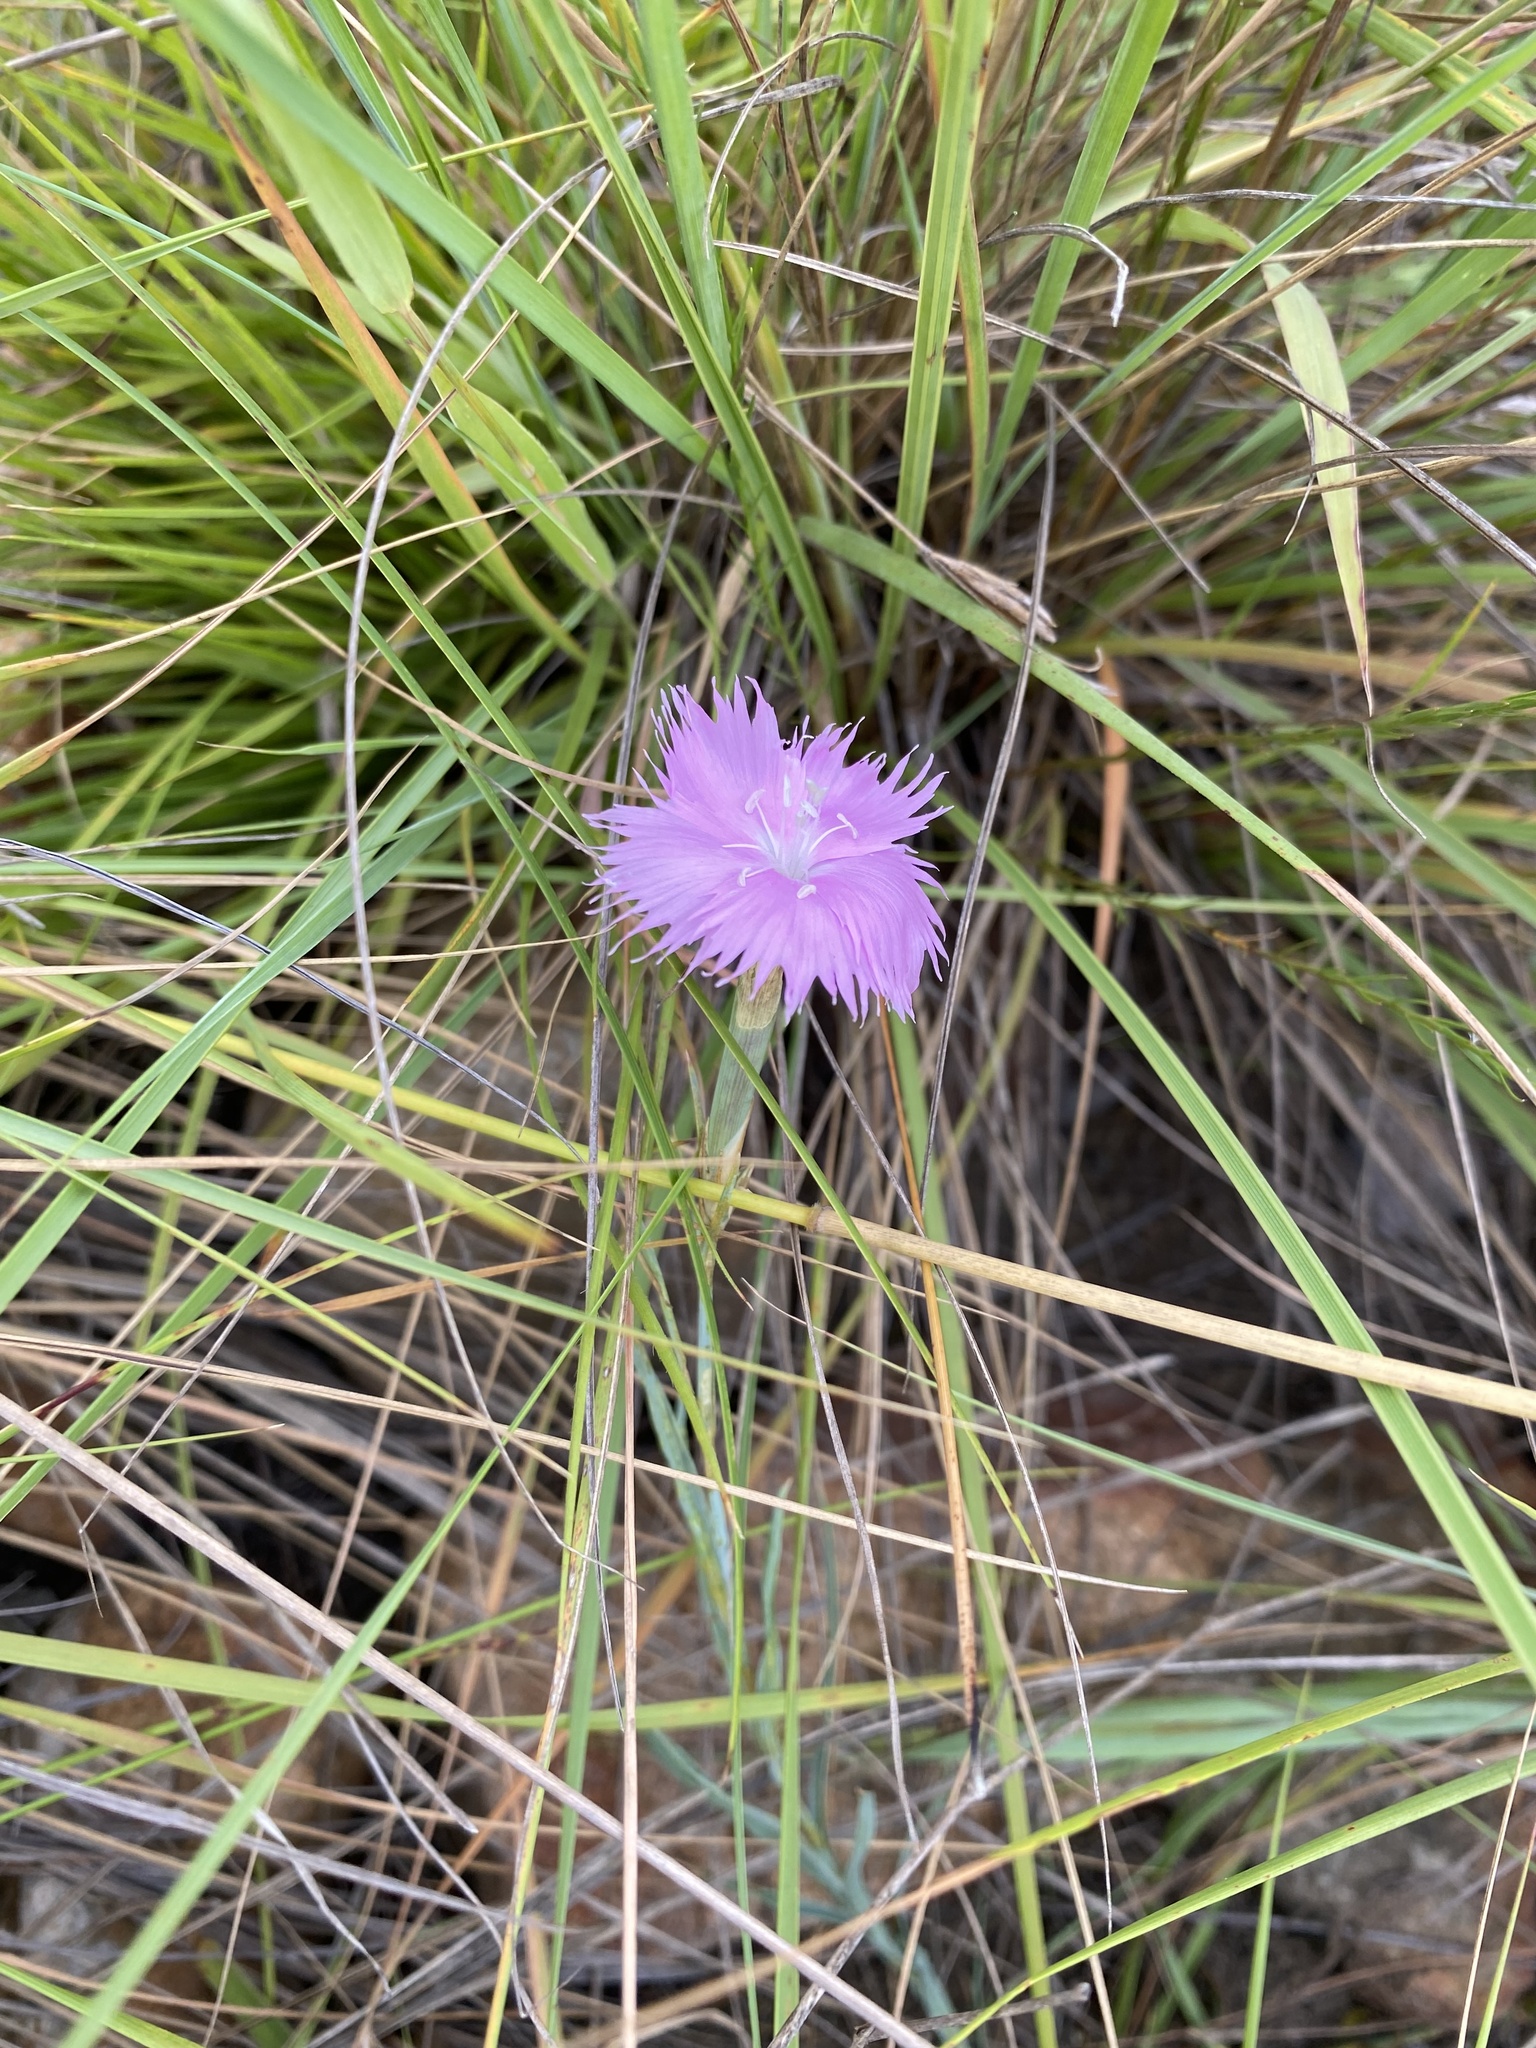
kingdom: Plantae
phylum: Tracheophyta
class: Magnoliopsida
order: Caryophyllales
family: Caryophyllaceae
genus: Dianthus
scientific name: Dianthus zeyheri
